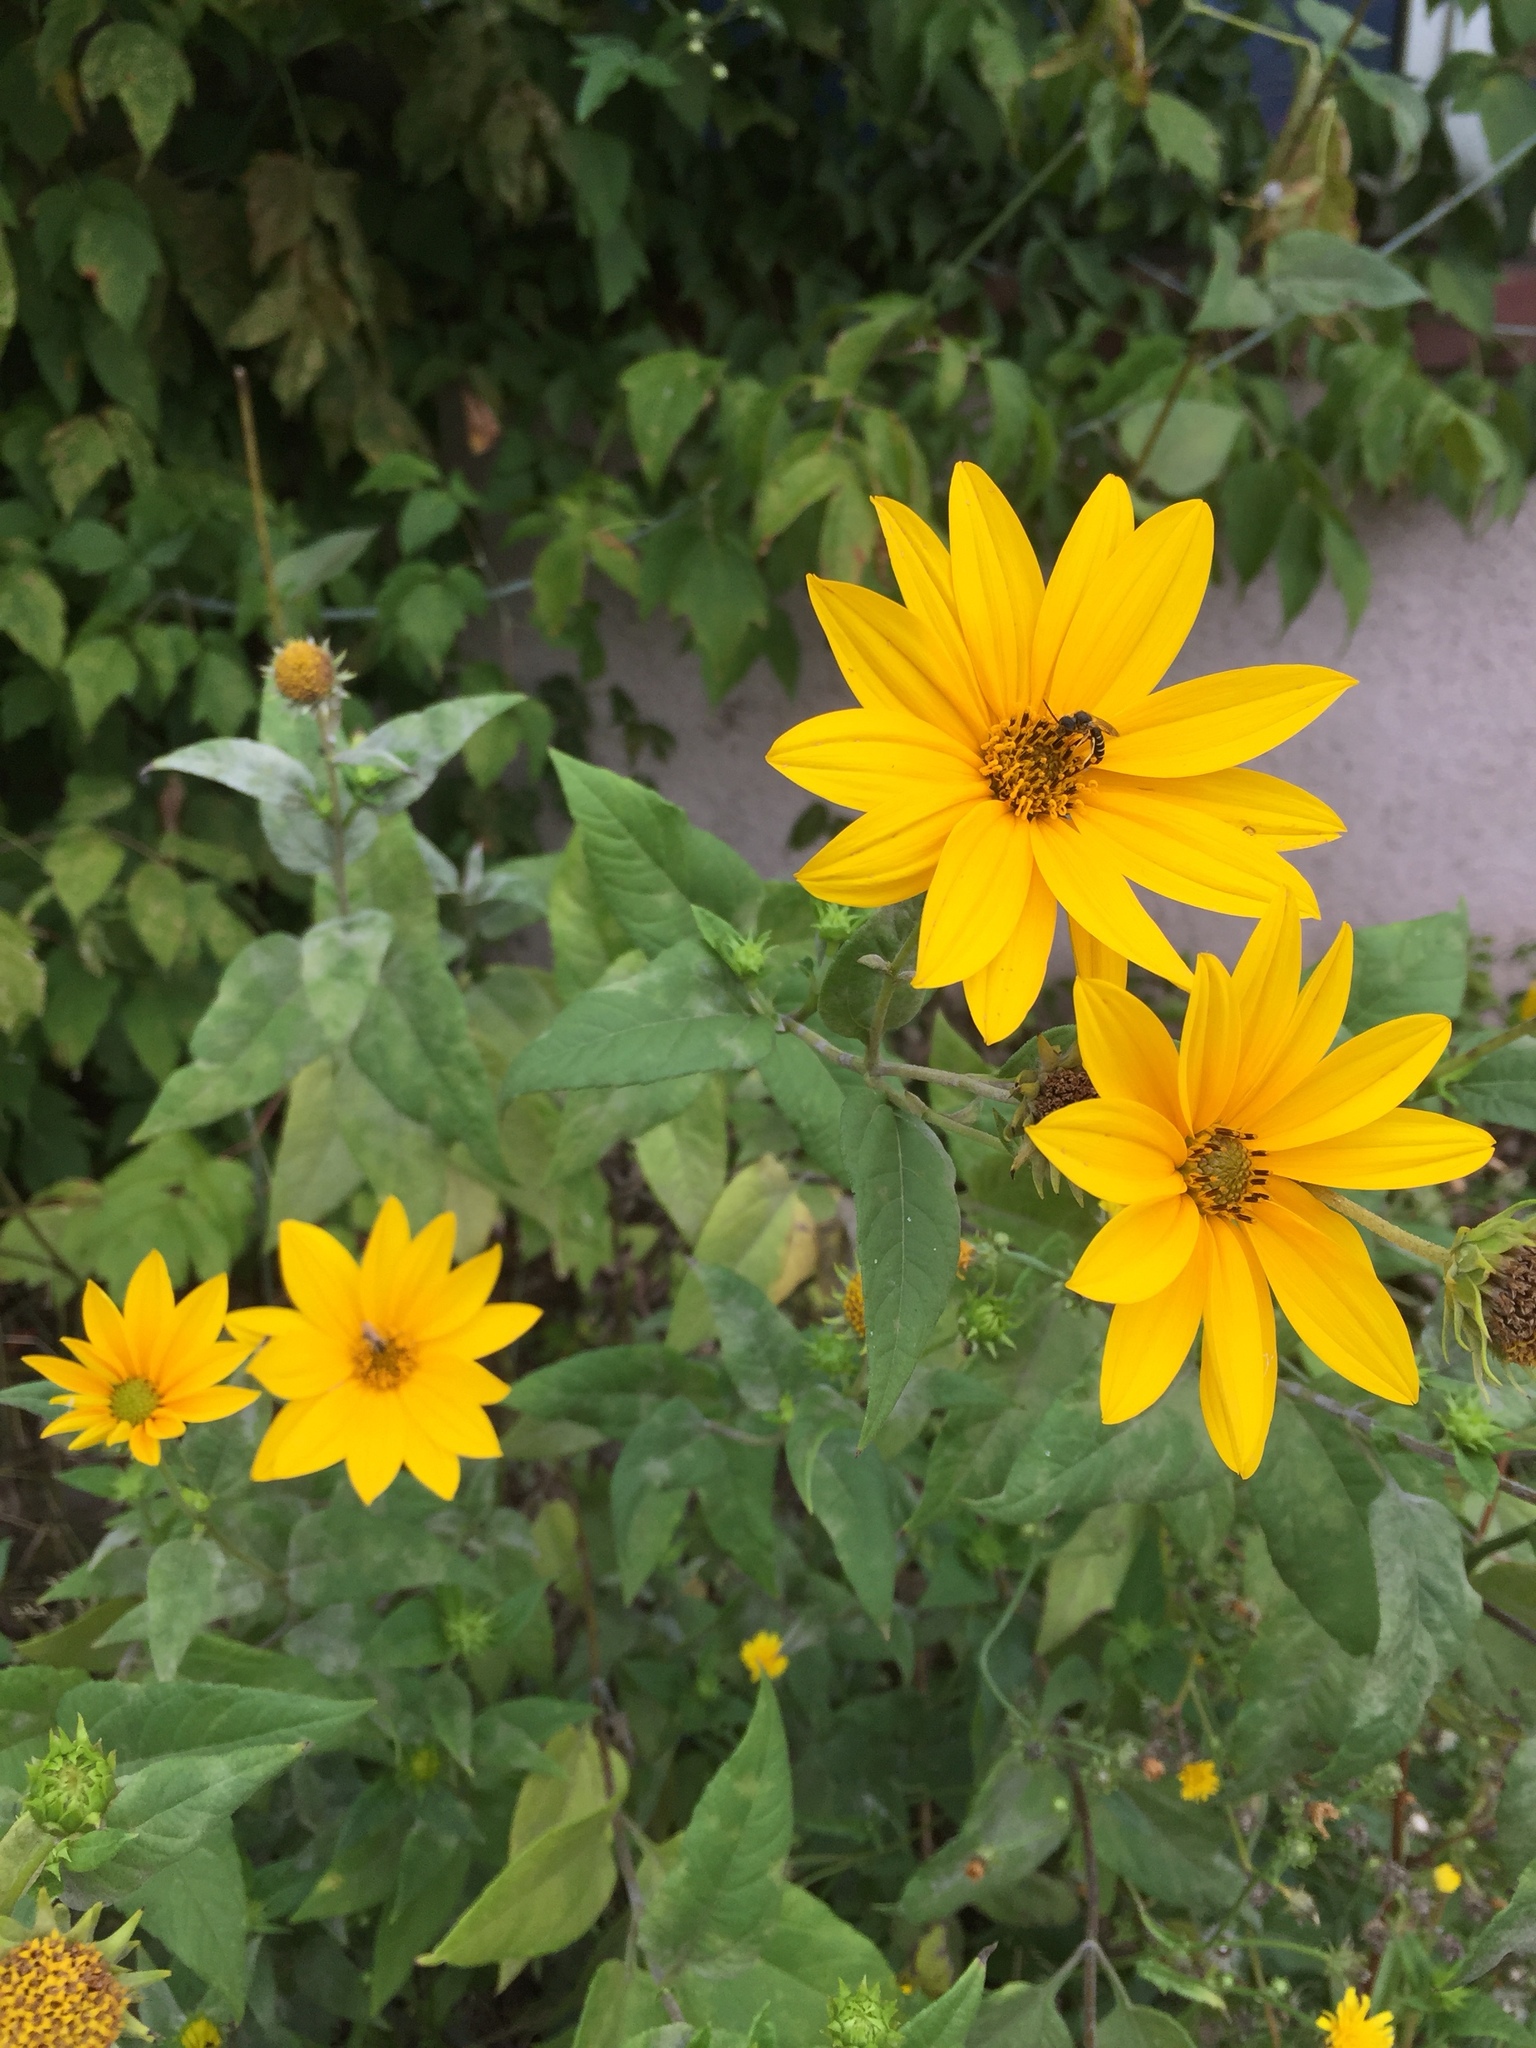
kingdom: Plantae
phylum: Tracheophyta
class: Magnoliopsida
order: Asterales
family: Asteraceae
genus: Helianthus
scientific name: Helianthus tuberosus
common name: Jerusalem artichoke
